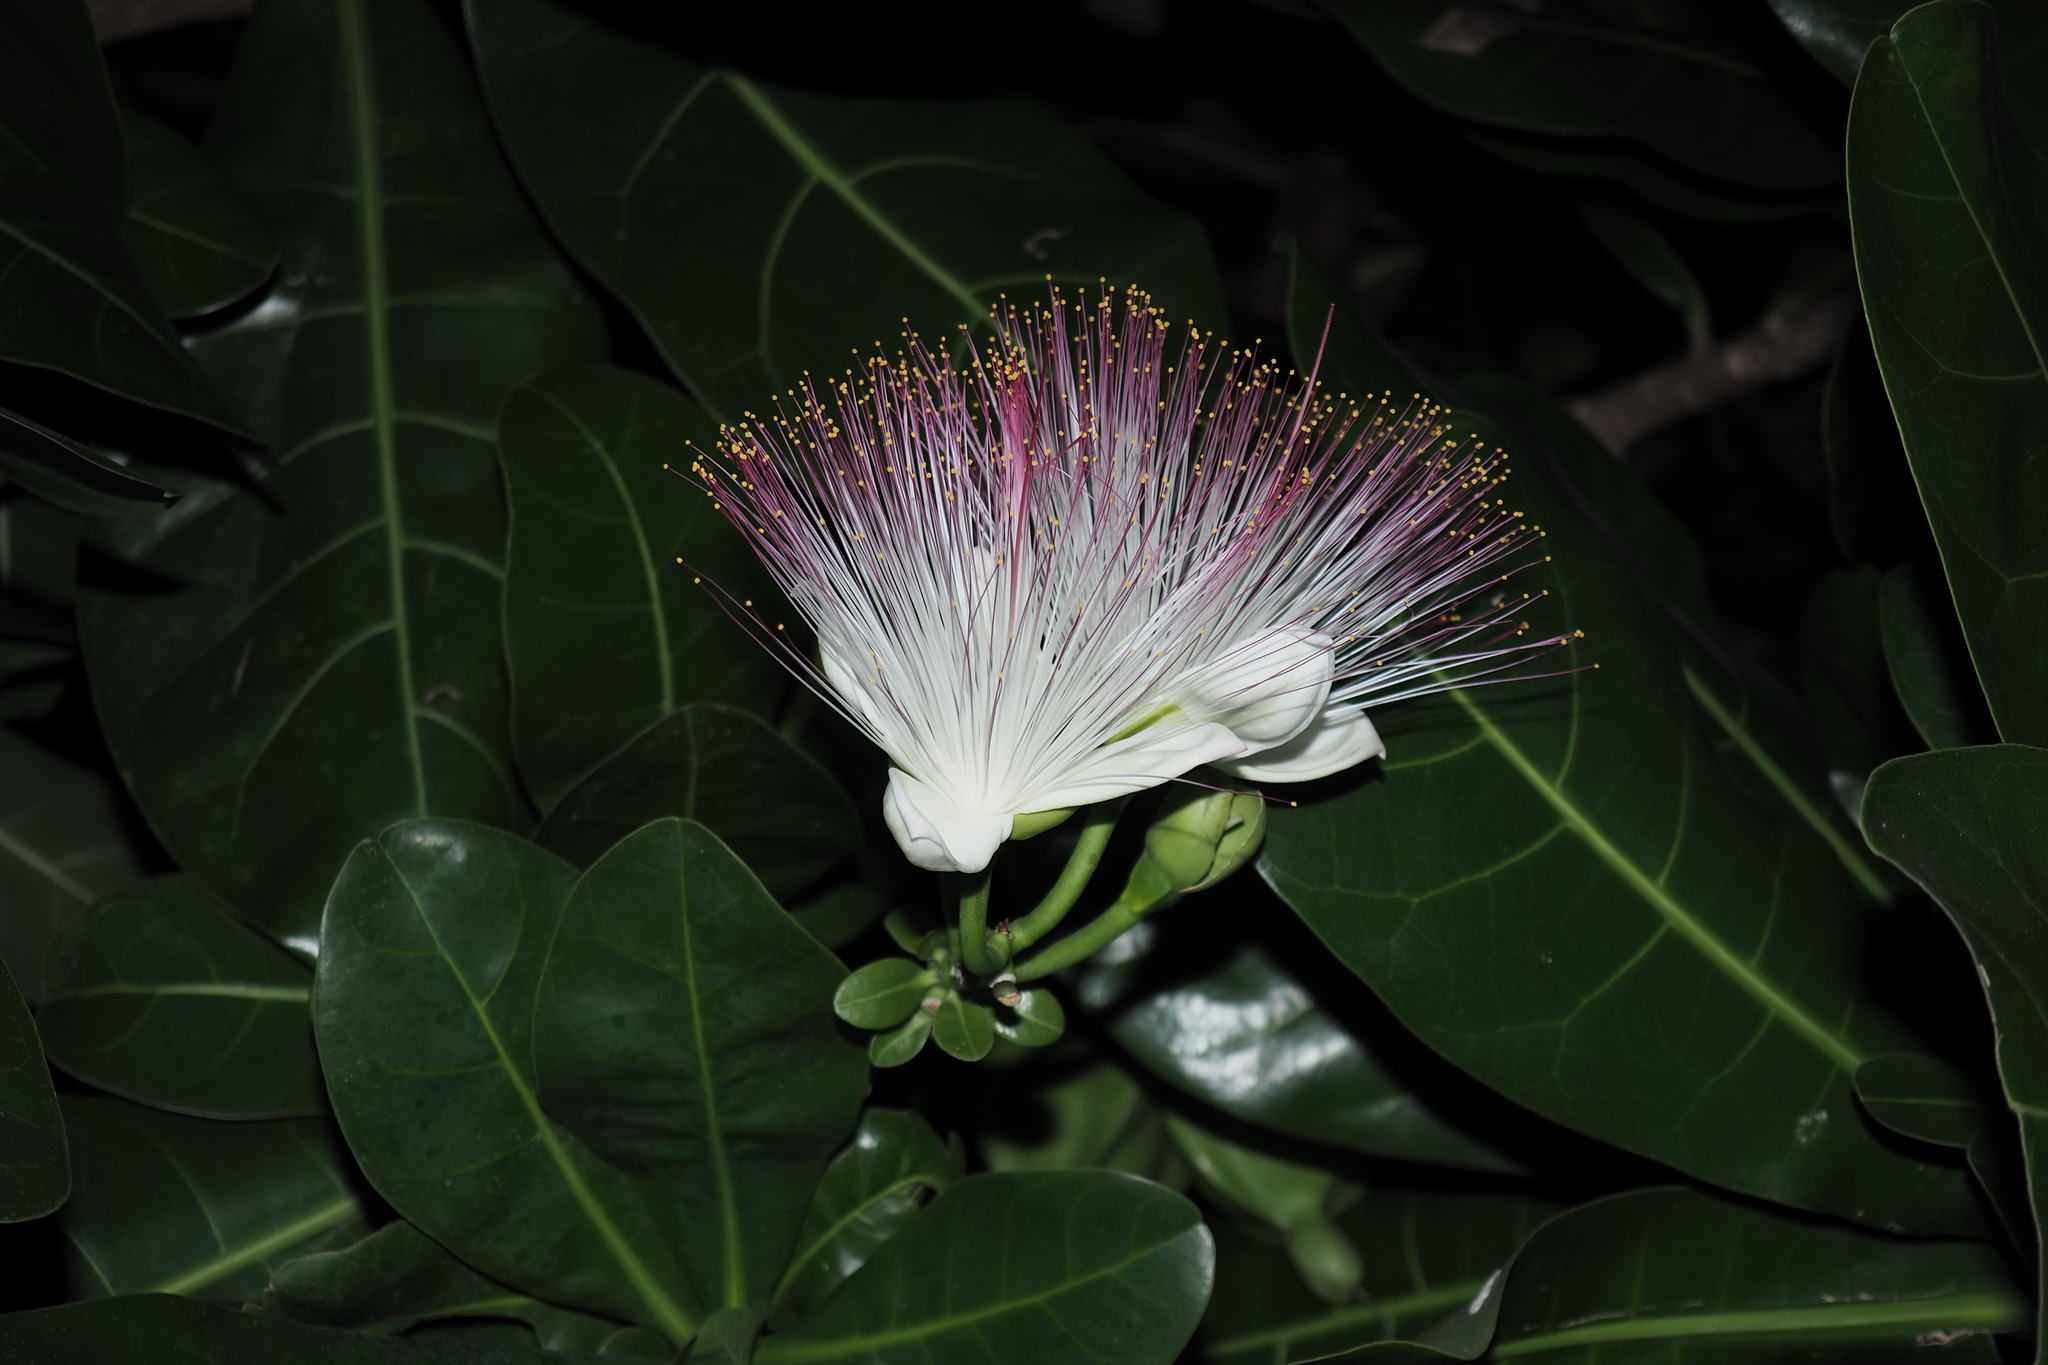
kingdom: Plantae
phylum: Tracheophyta
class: Magnoliopsida
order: Ericales
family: Lecythidaceae
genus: Barringtonia
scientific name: Barringtonia asiatica
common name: Mango-pine
